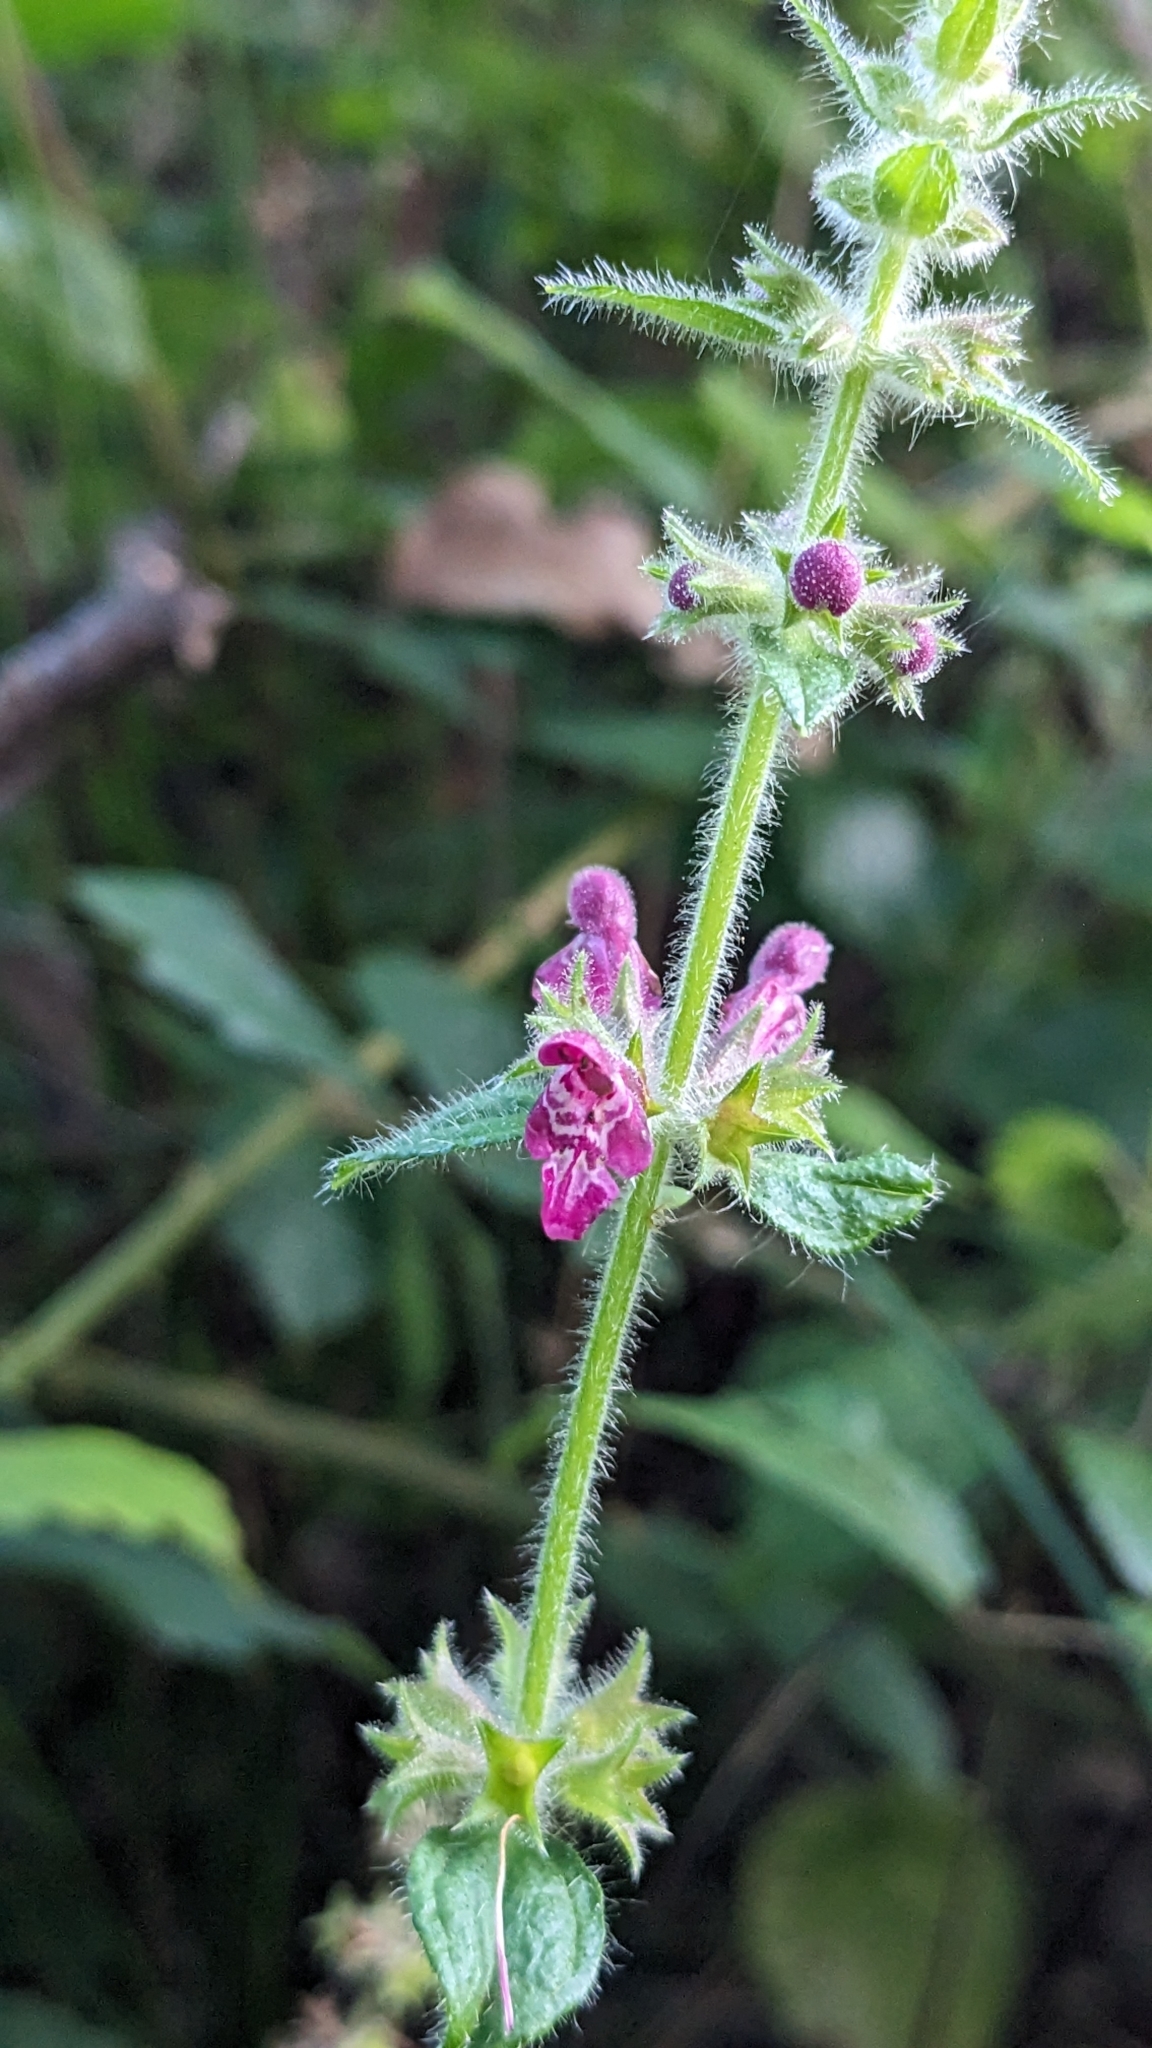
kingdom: Plantae
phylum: Tracheophyta
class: Magnoliopsida
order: Lamiales
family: Lamiaceae
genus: Stachys
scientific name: Stachys sylvatica
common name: Hedge woundwort
